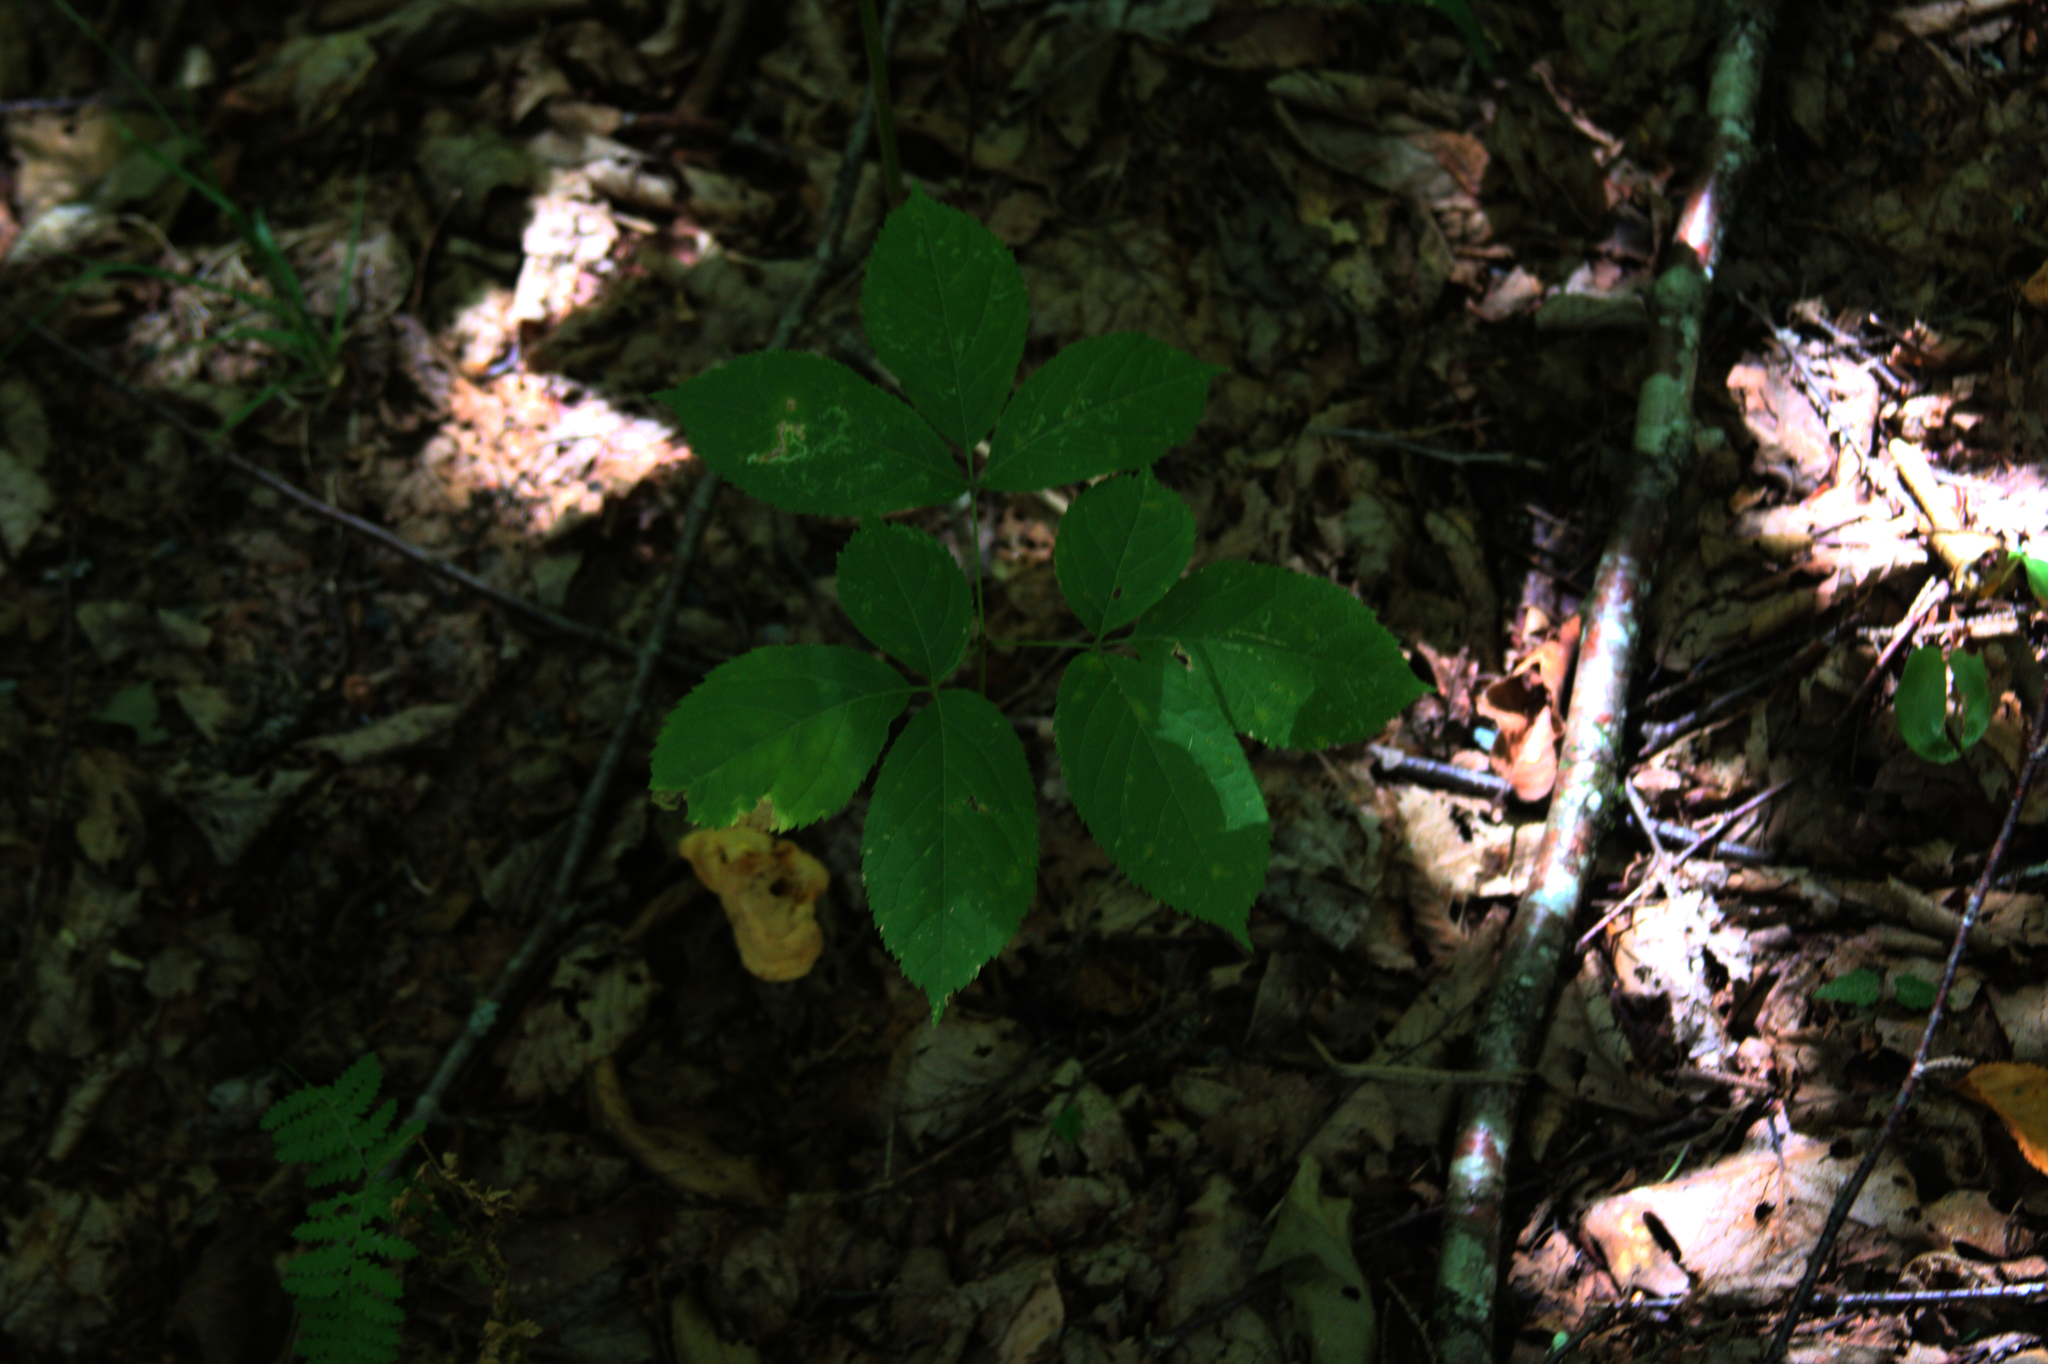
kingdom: Plantae
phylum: Tracheophyta
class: Magnoliopsida
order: Apiales
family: Araliaceae
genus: Aralia
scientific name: Aralia nudicaulis
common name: Wild sarsaparilla
